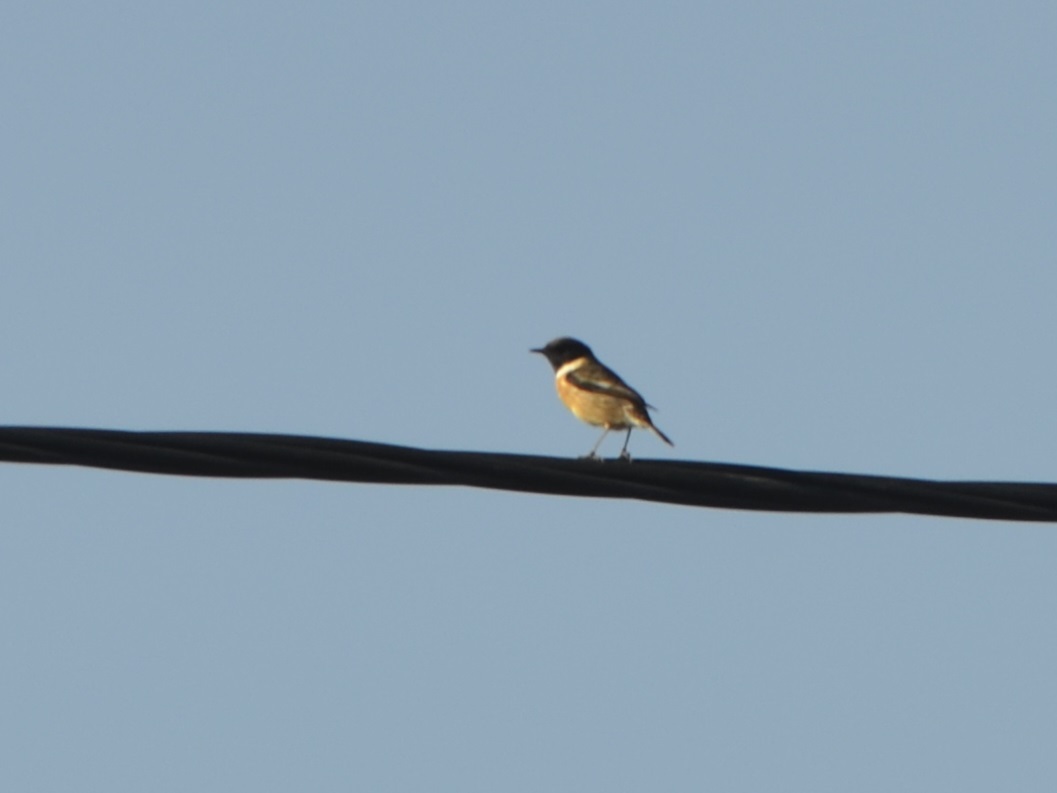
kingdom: Animalia
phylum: Chordata
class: Aves
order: Passeriformes
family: Muscicapidae
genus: Saxicola
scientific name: Saxicola rubicola
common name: European stonechat
